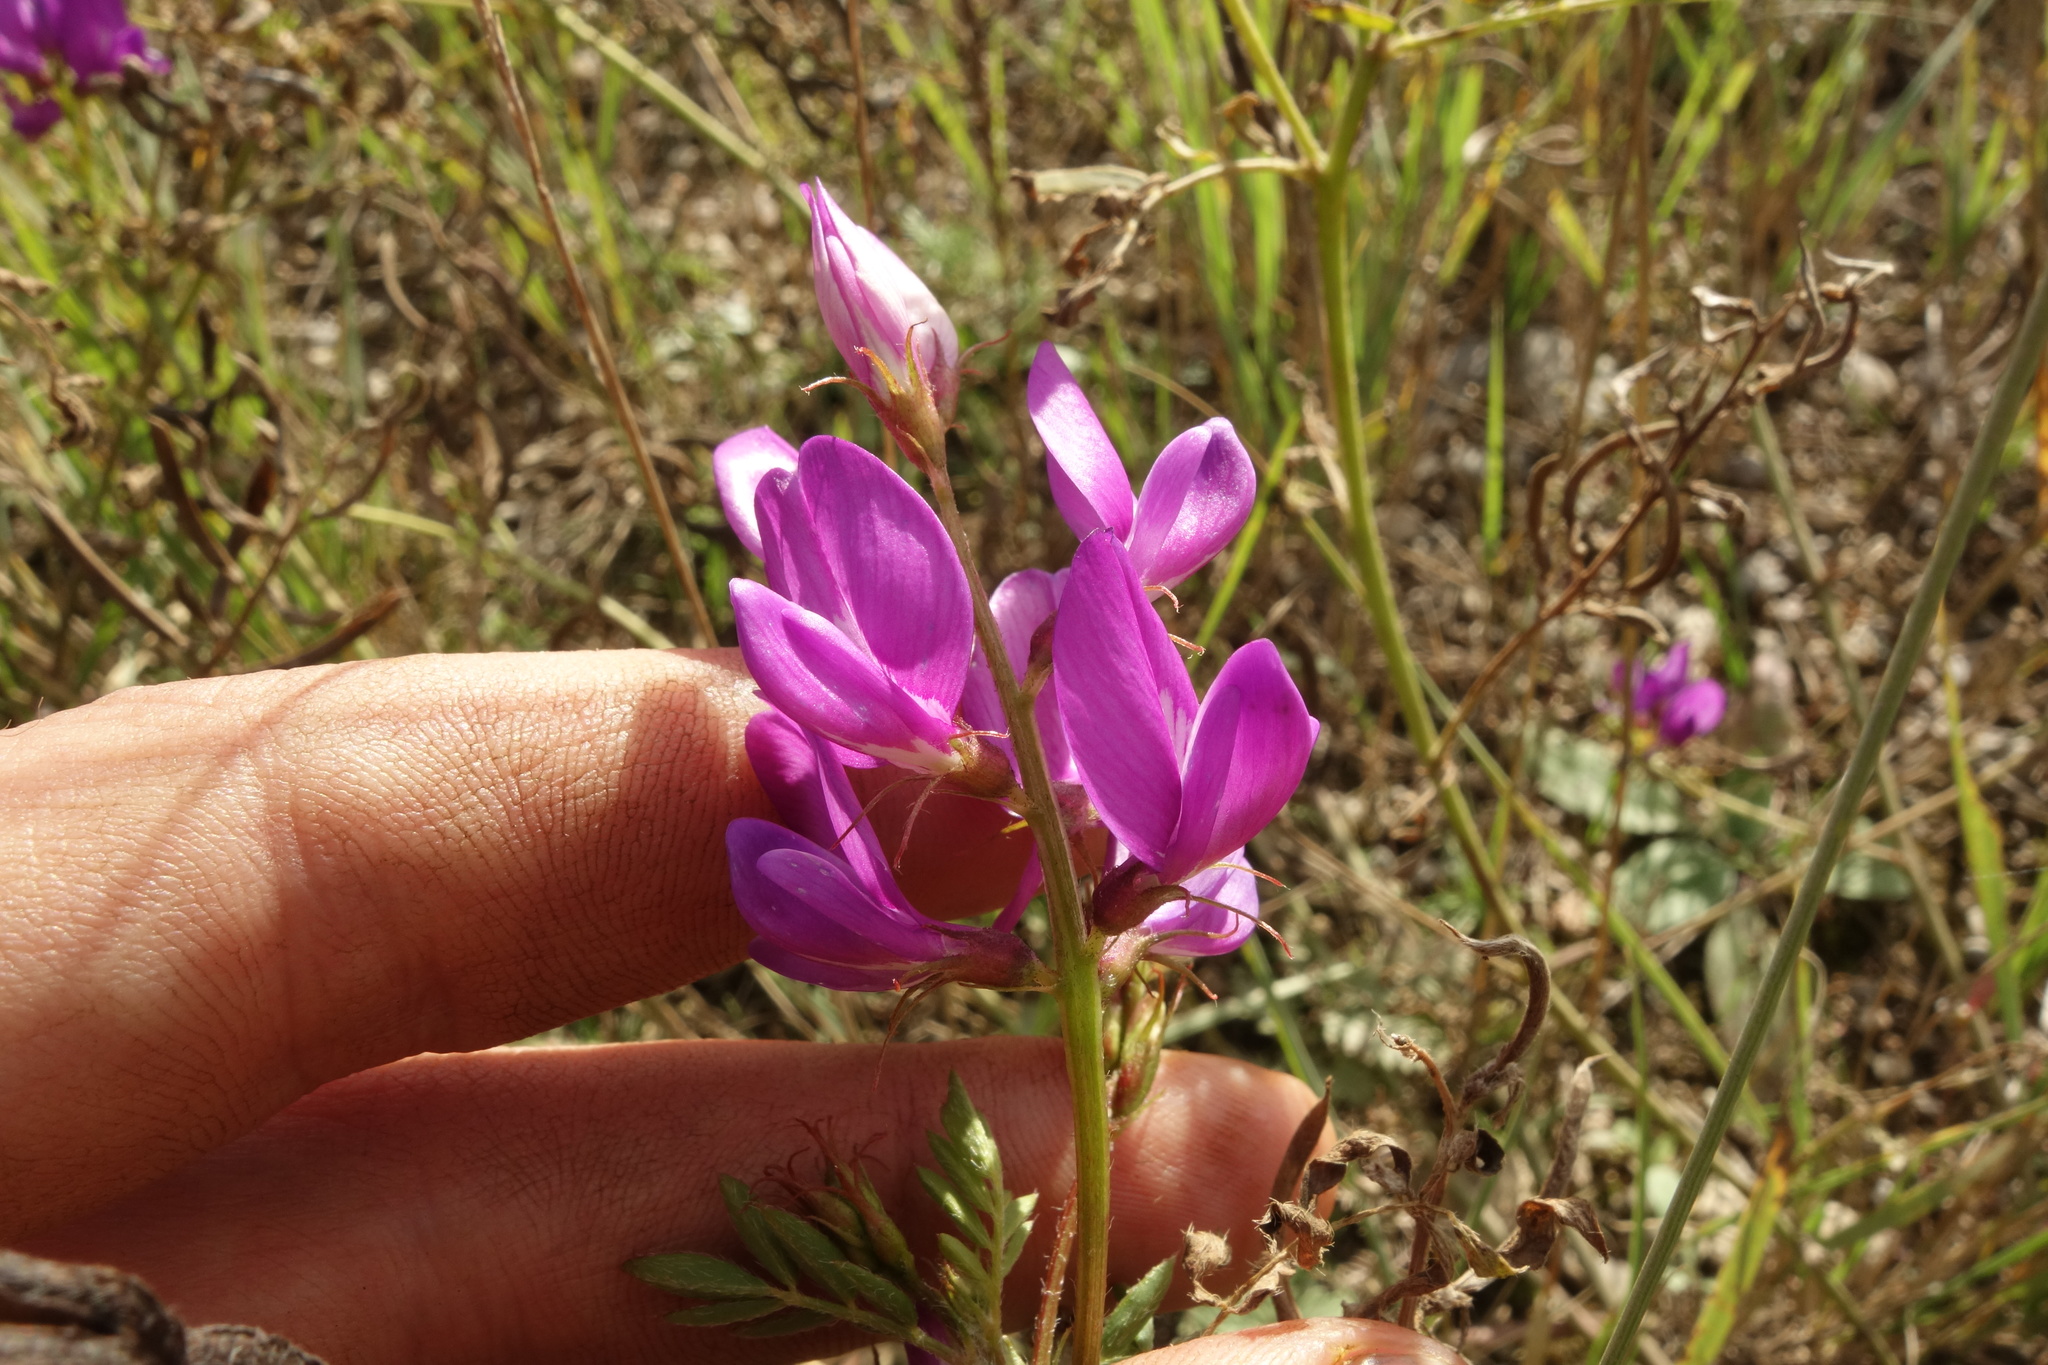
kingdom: Plantae
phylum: Tracheophyta
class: Magnoliopsida
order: Fabales
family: Fabaceae
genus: Astragalus
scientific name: Astragalus davuricus
